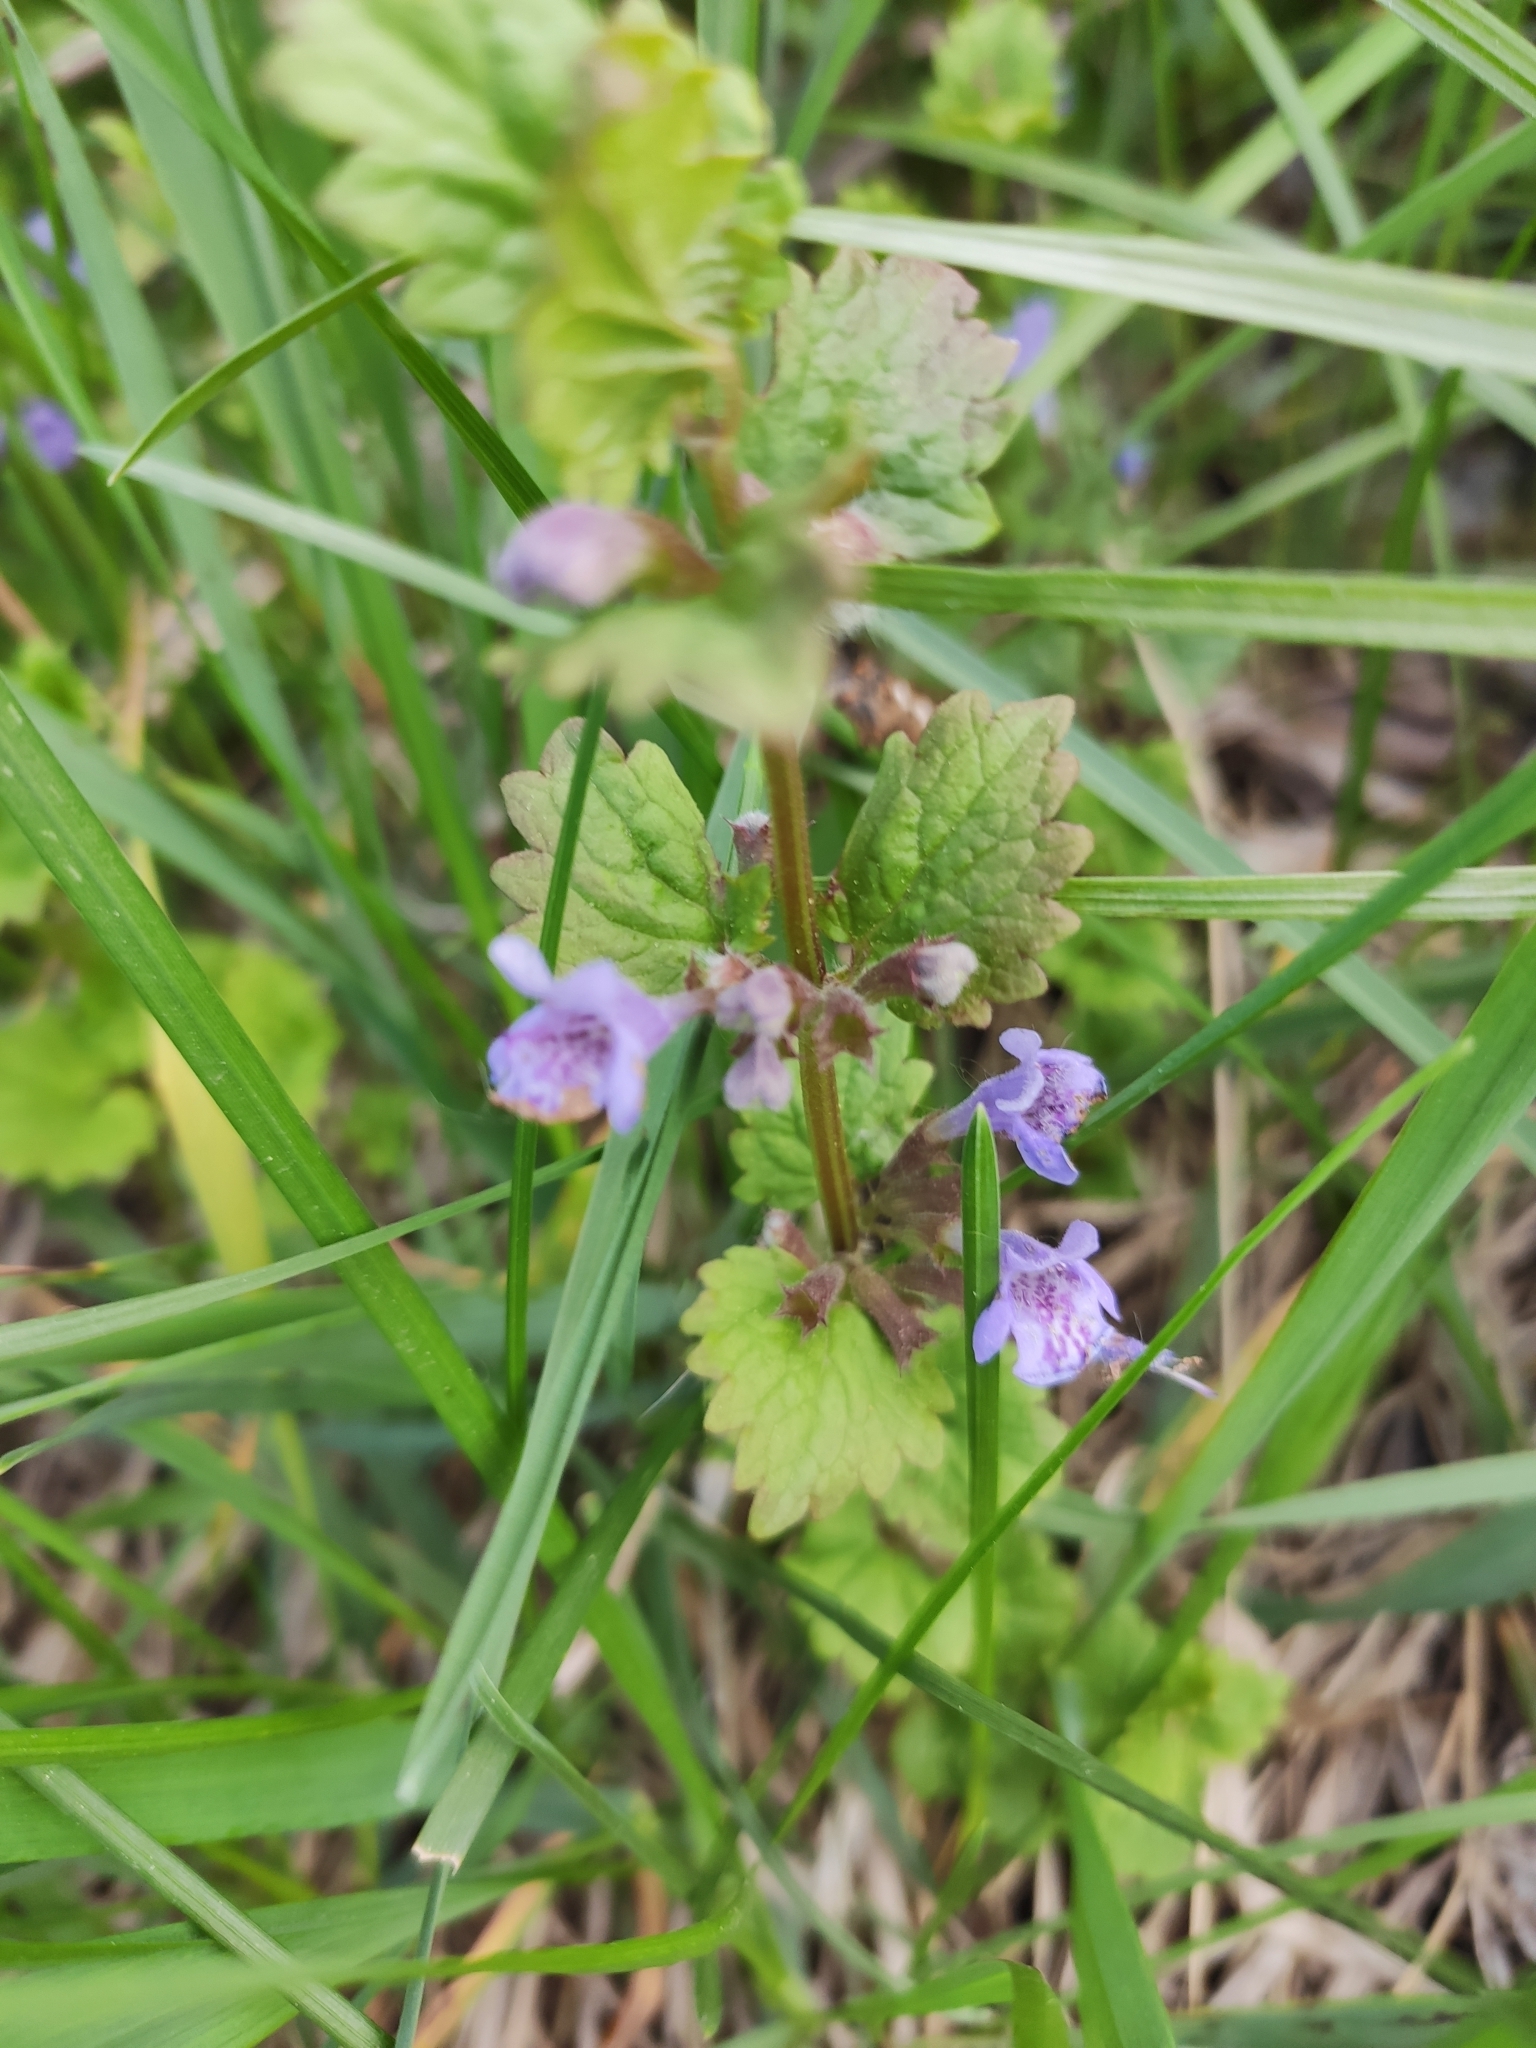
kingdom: Plantae
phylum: Tracheophyta
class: Magnoliopsida
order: Lamiales
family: Lamiaceae
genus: Glechoma
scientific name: Glechoma hederacea
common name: Ground ivy
